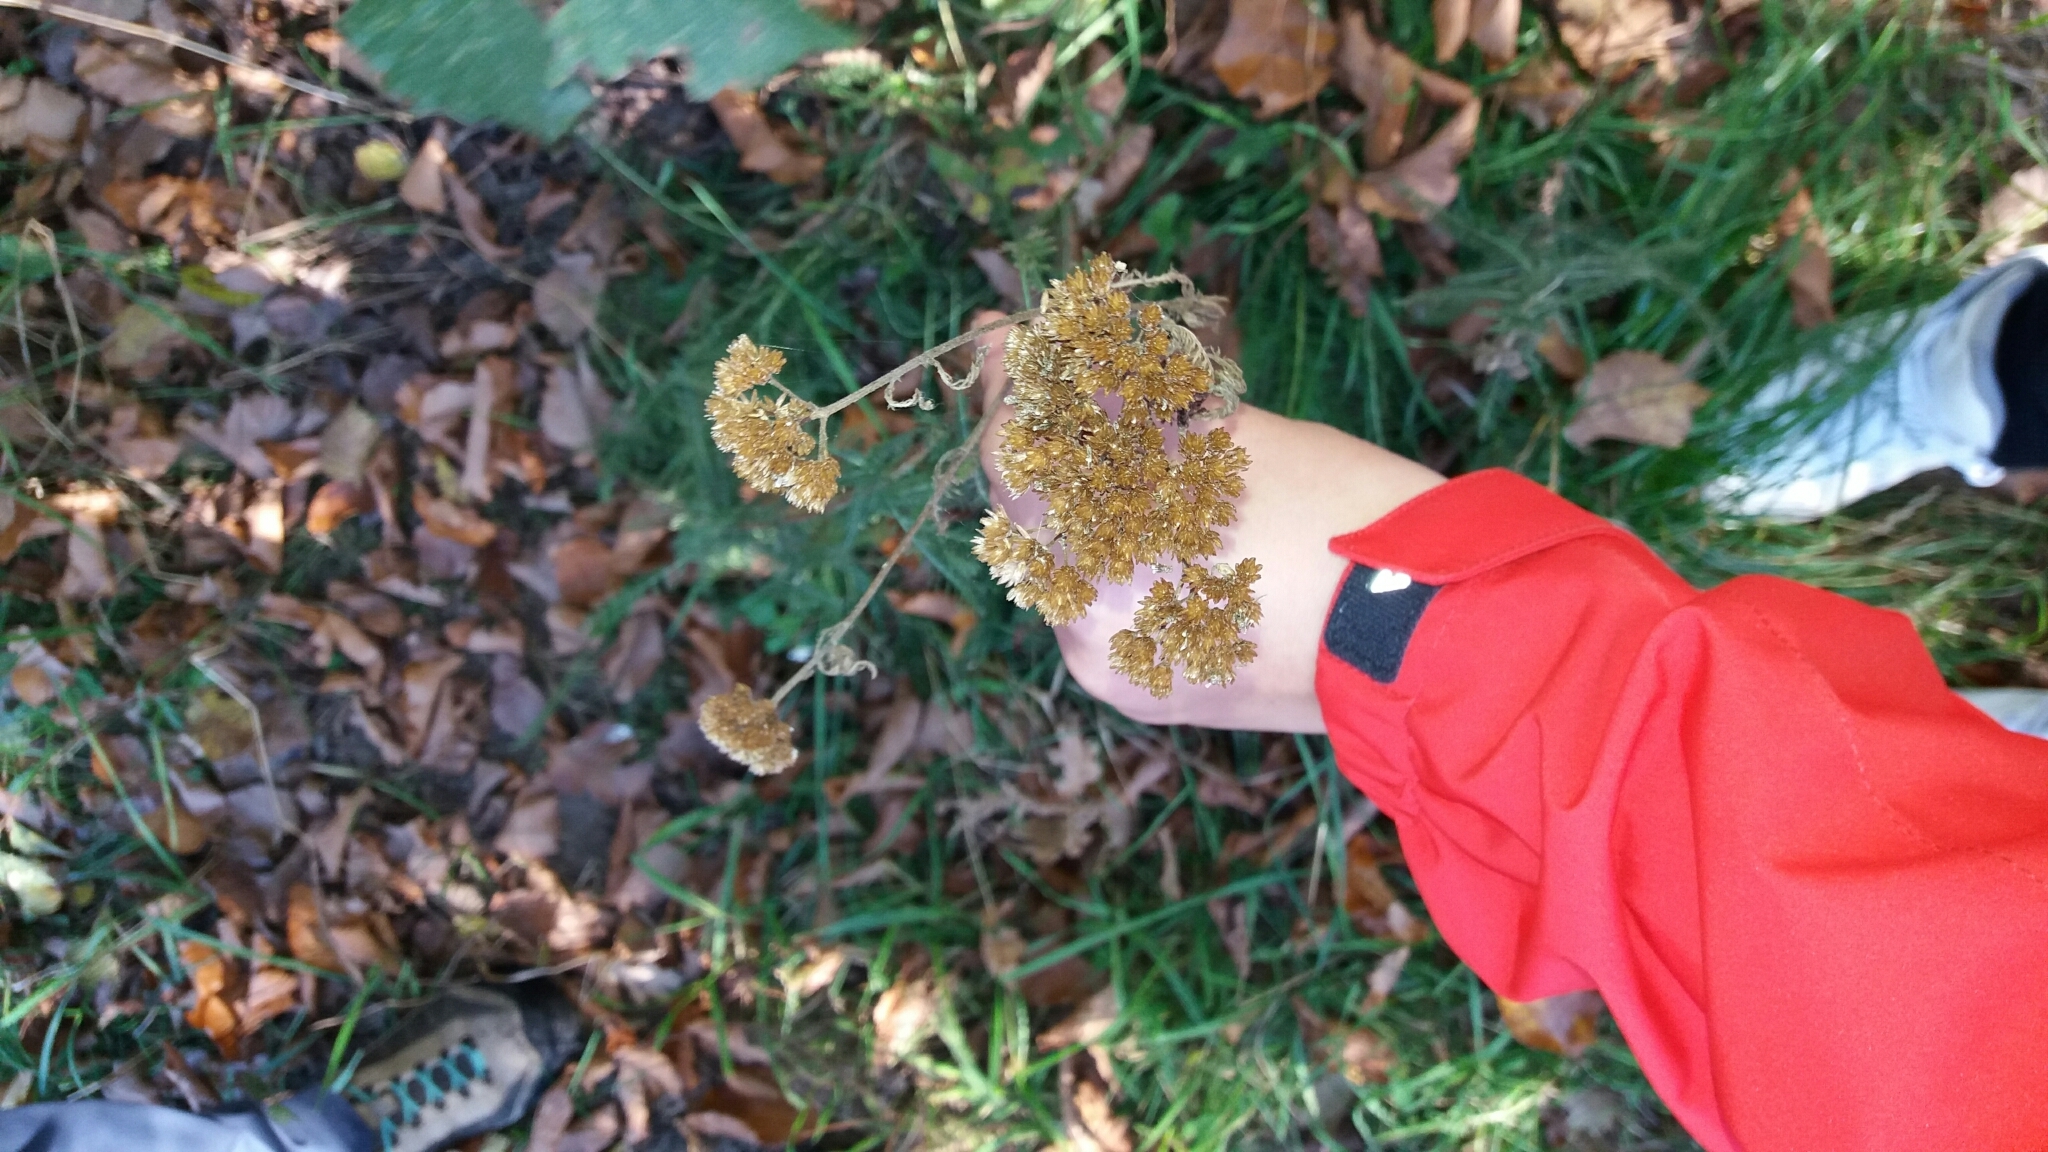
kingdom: Plantae
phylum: Tracheophyta
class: Magnoliopsida
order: Asterales
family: Asteraceae
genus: Achillea
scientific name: Achillea millefolium
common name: Yarrow
